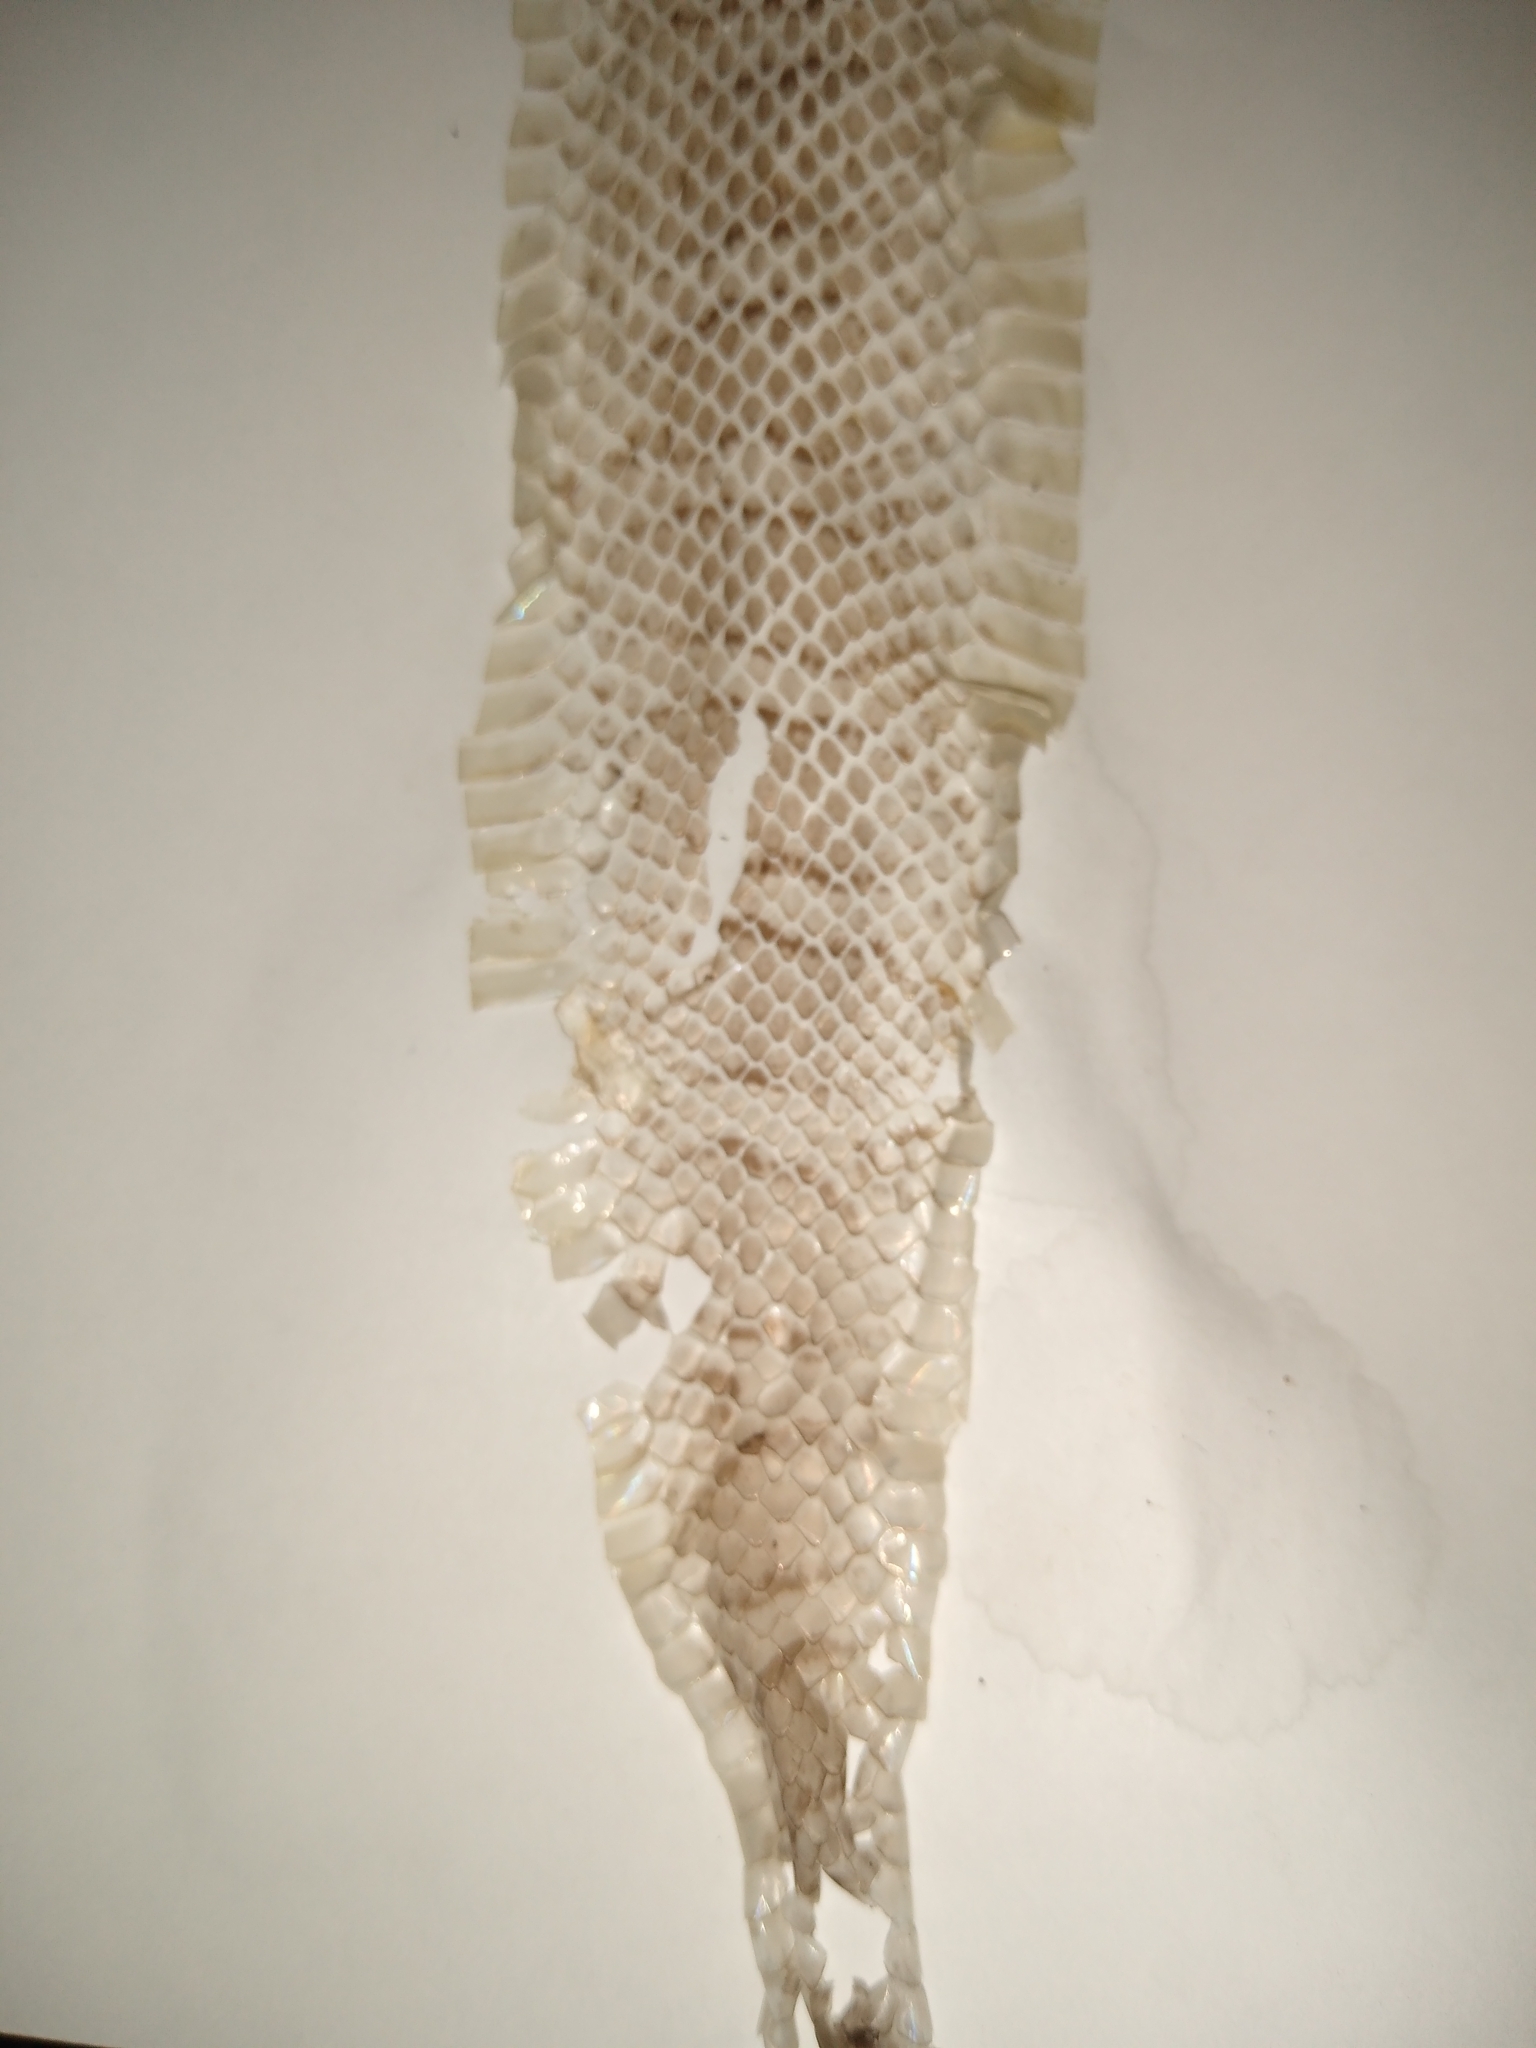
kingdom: Animalia
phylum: Chordata
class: Squamata
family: Colubridae
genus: Lampropeltis
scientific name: Lampropeltis triangulum
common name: Eastern milksnake
